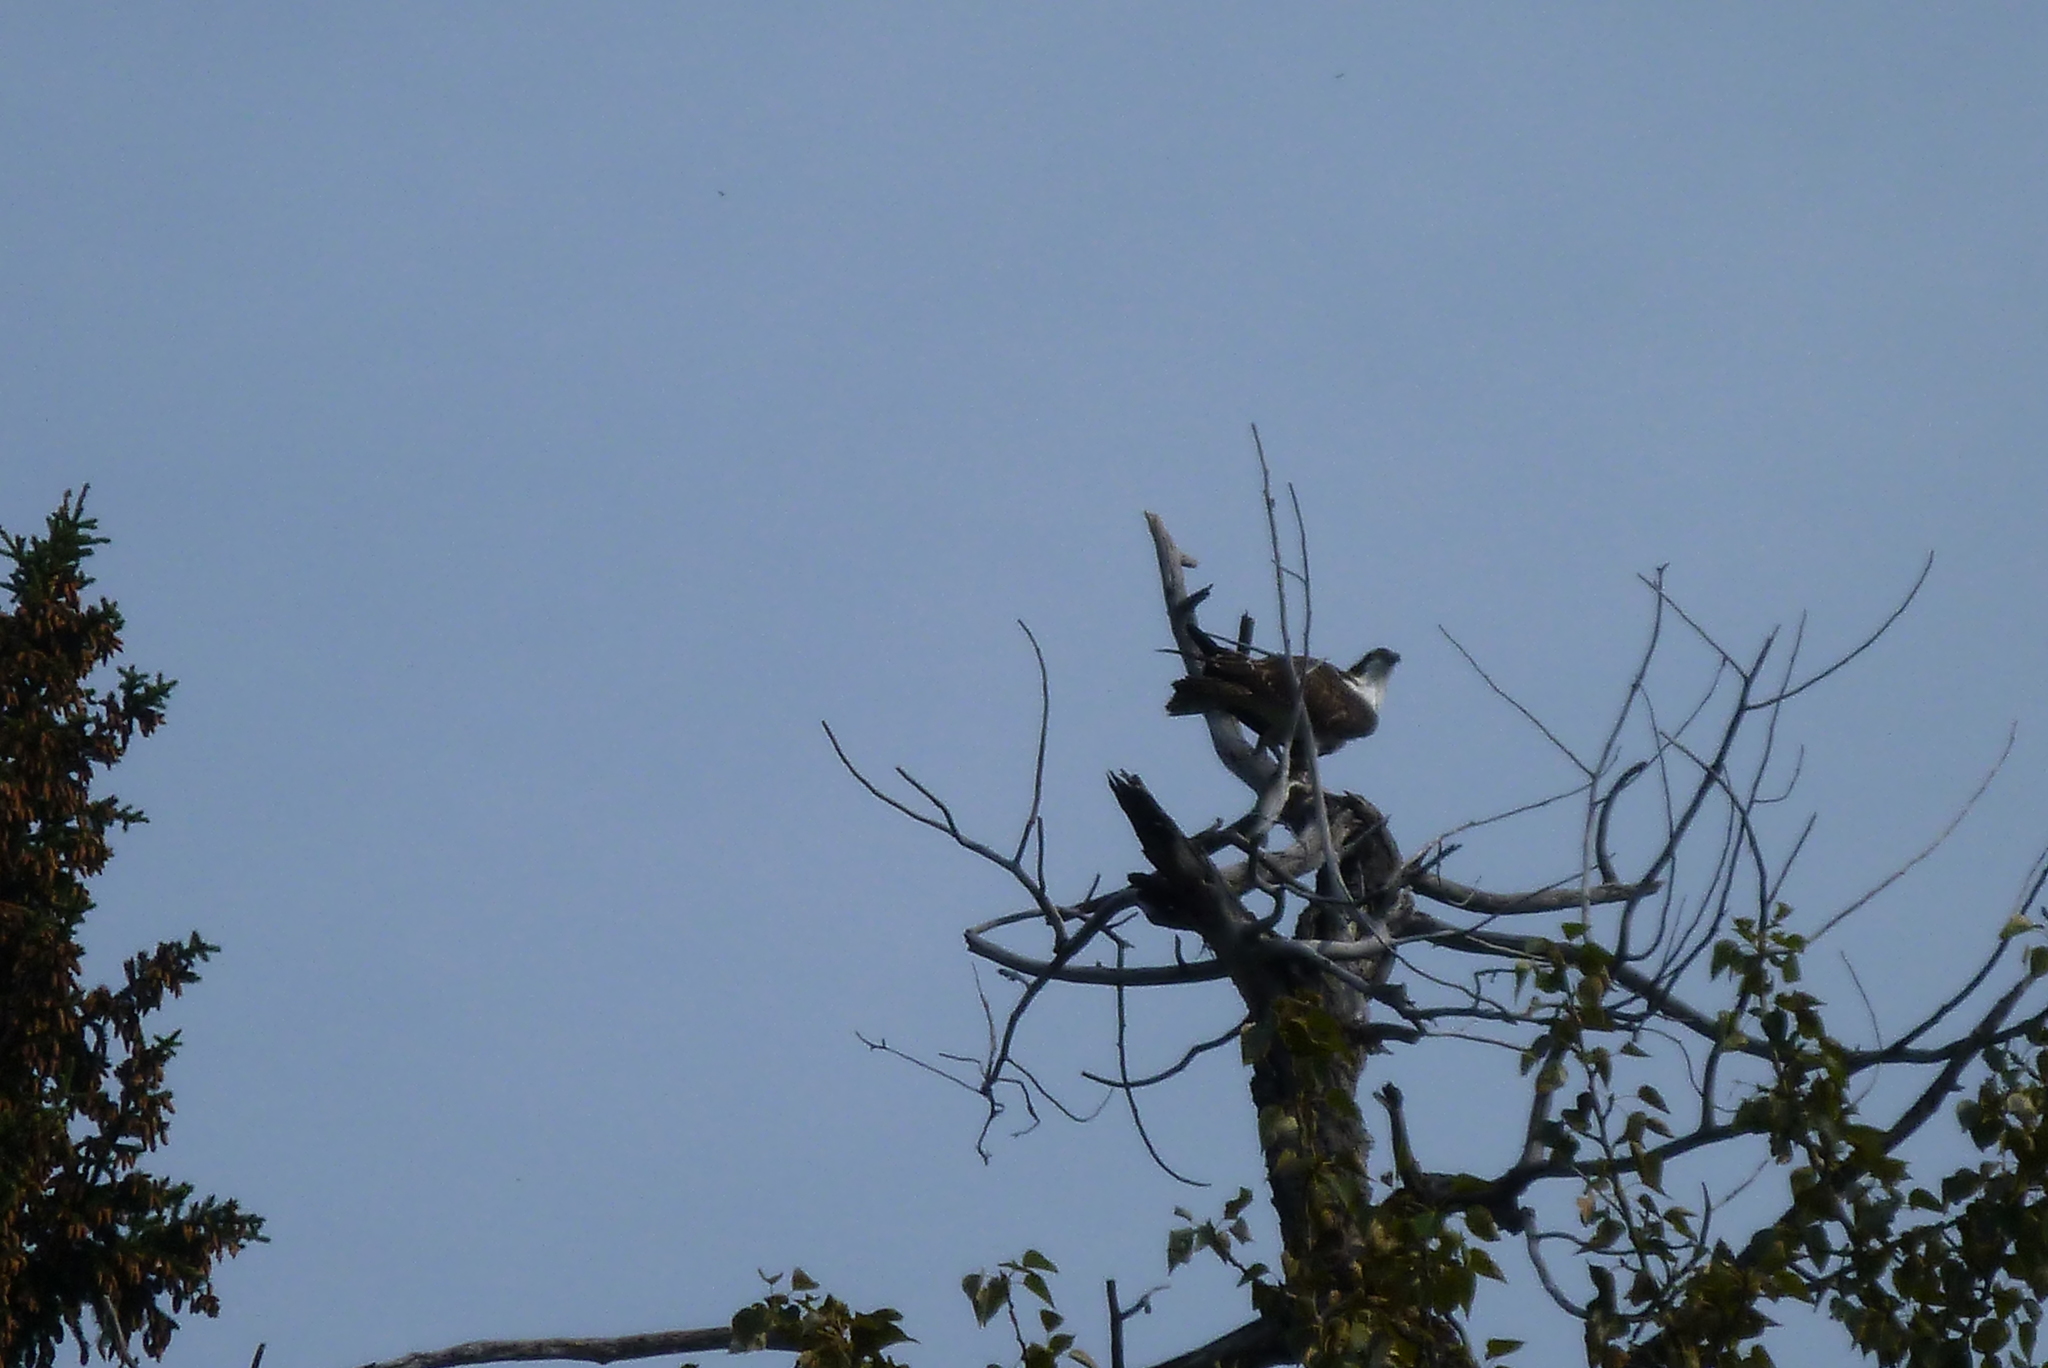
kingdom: Animalia
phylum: Chordata
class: Aves
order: Accipitriformes
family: Pandionidae
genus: Pandion
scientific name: Pandion haliaetus
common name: Osprey
